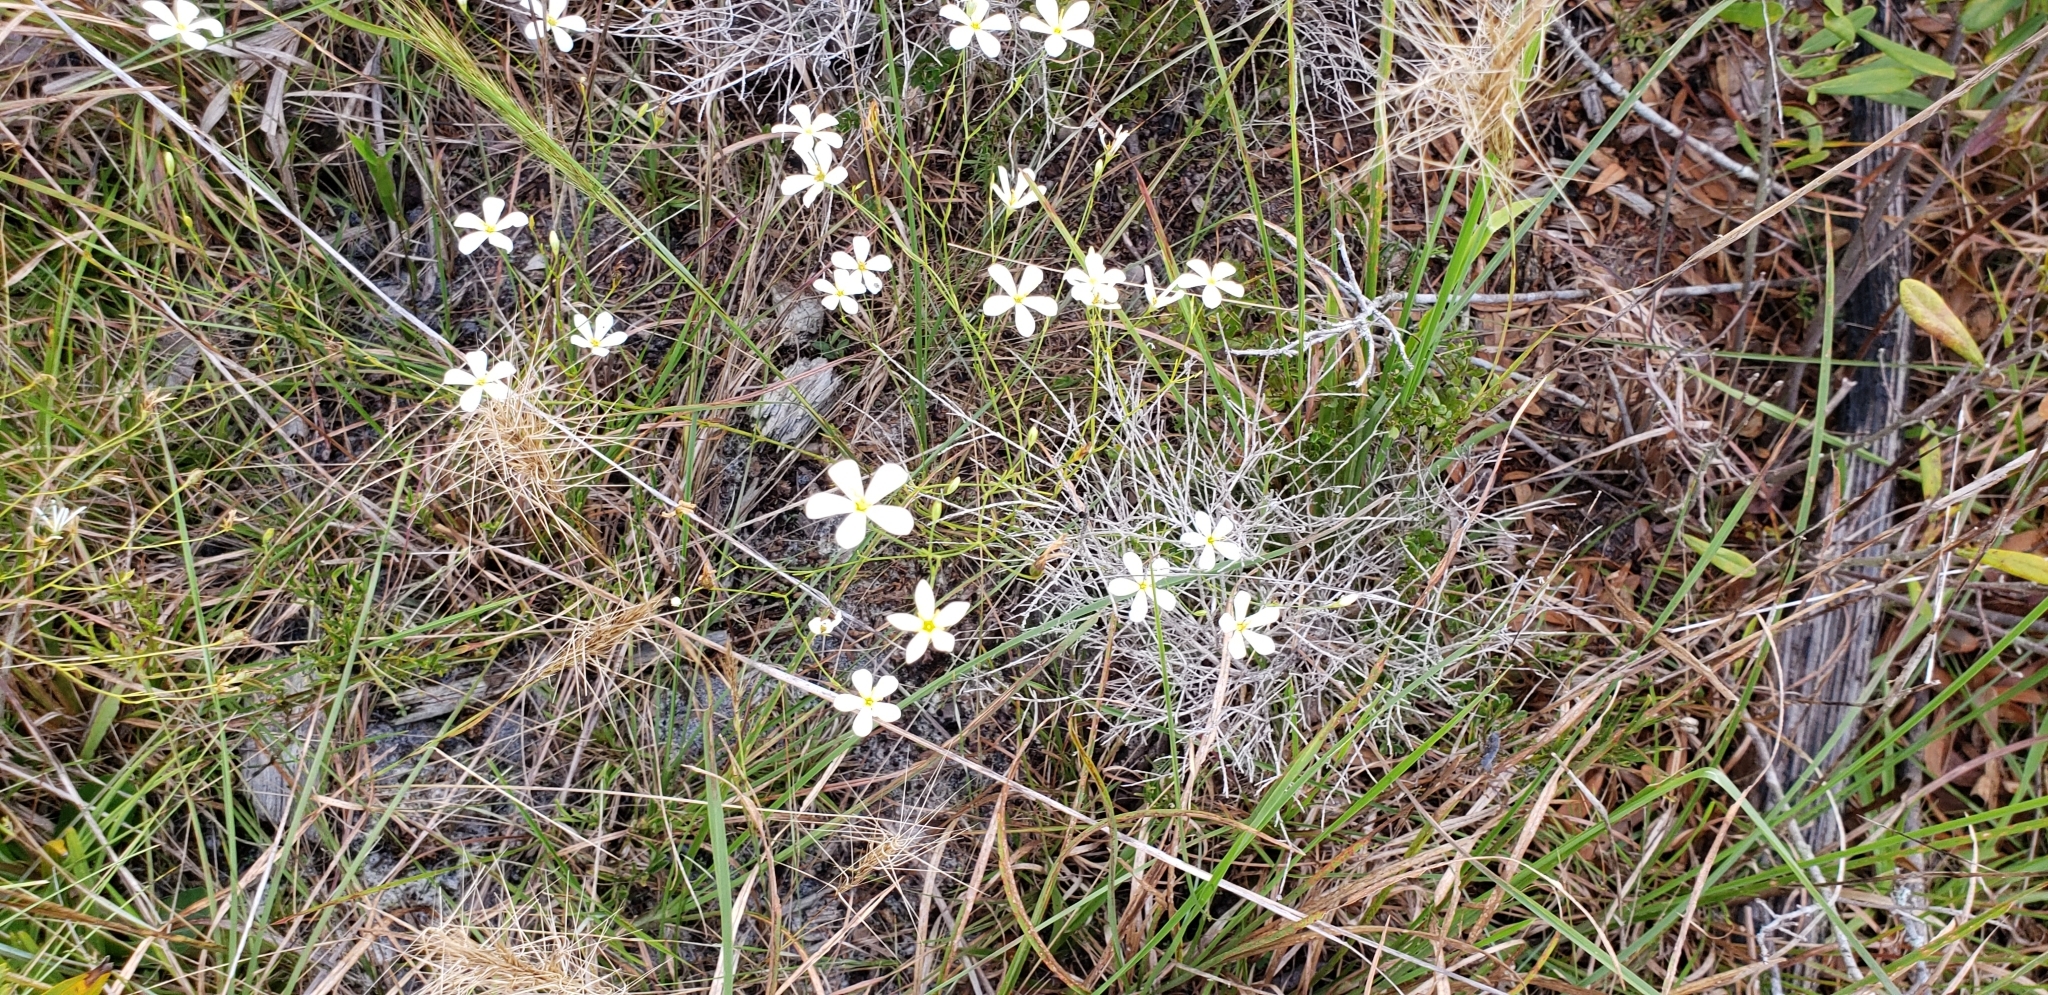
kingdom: Plantae
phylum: Tracheophyta
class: Magnoliopsida
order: Gentianales
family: Gentianaceae
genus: Sabatia
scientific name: Sabatia brevifolia
